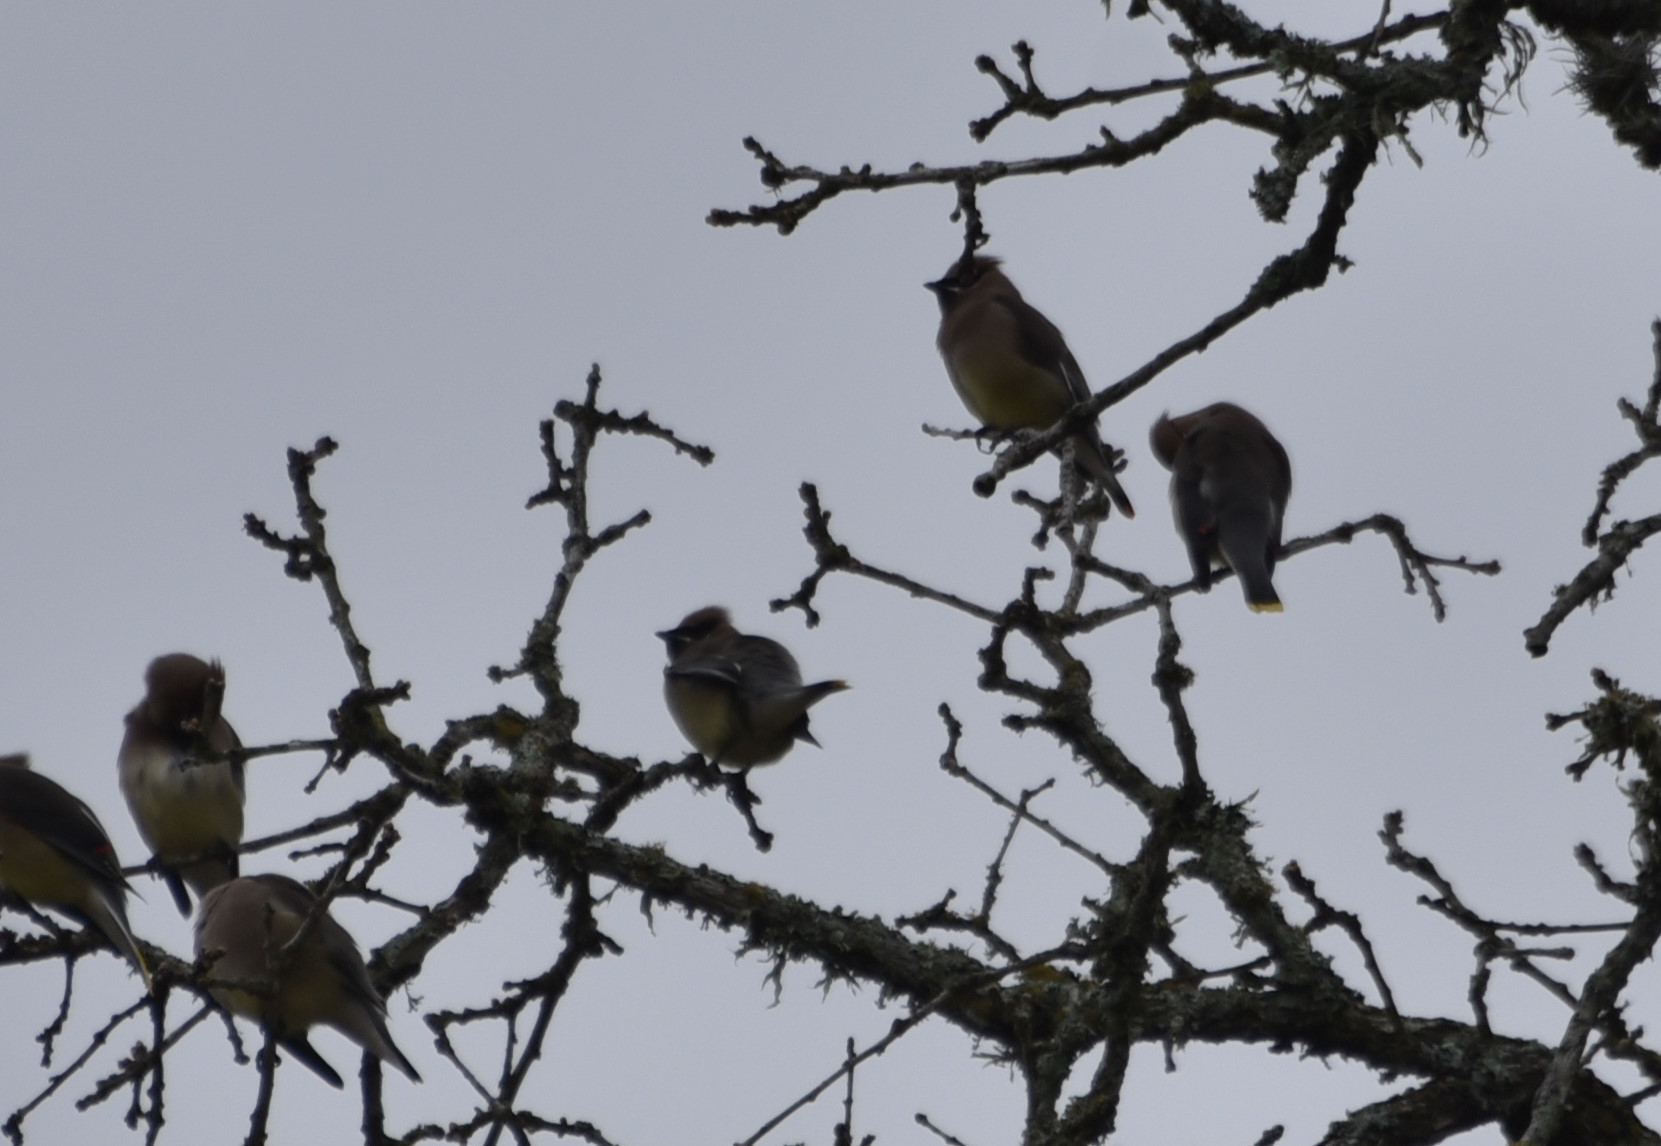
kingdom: Animalia
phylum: Chordata
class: Aves
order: Passeriformes
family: Bombycillidae
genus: Bombycilla
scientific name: Bombycilla cedrorum
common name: Cedar waxwing
